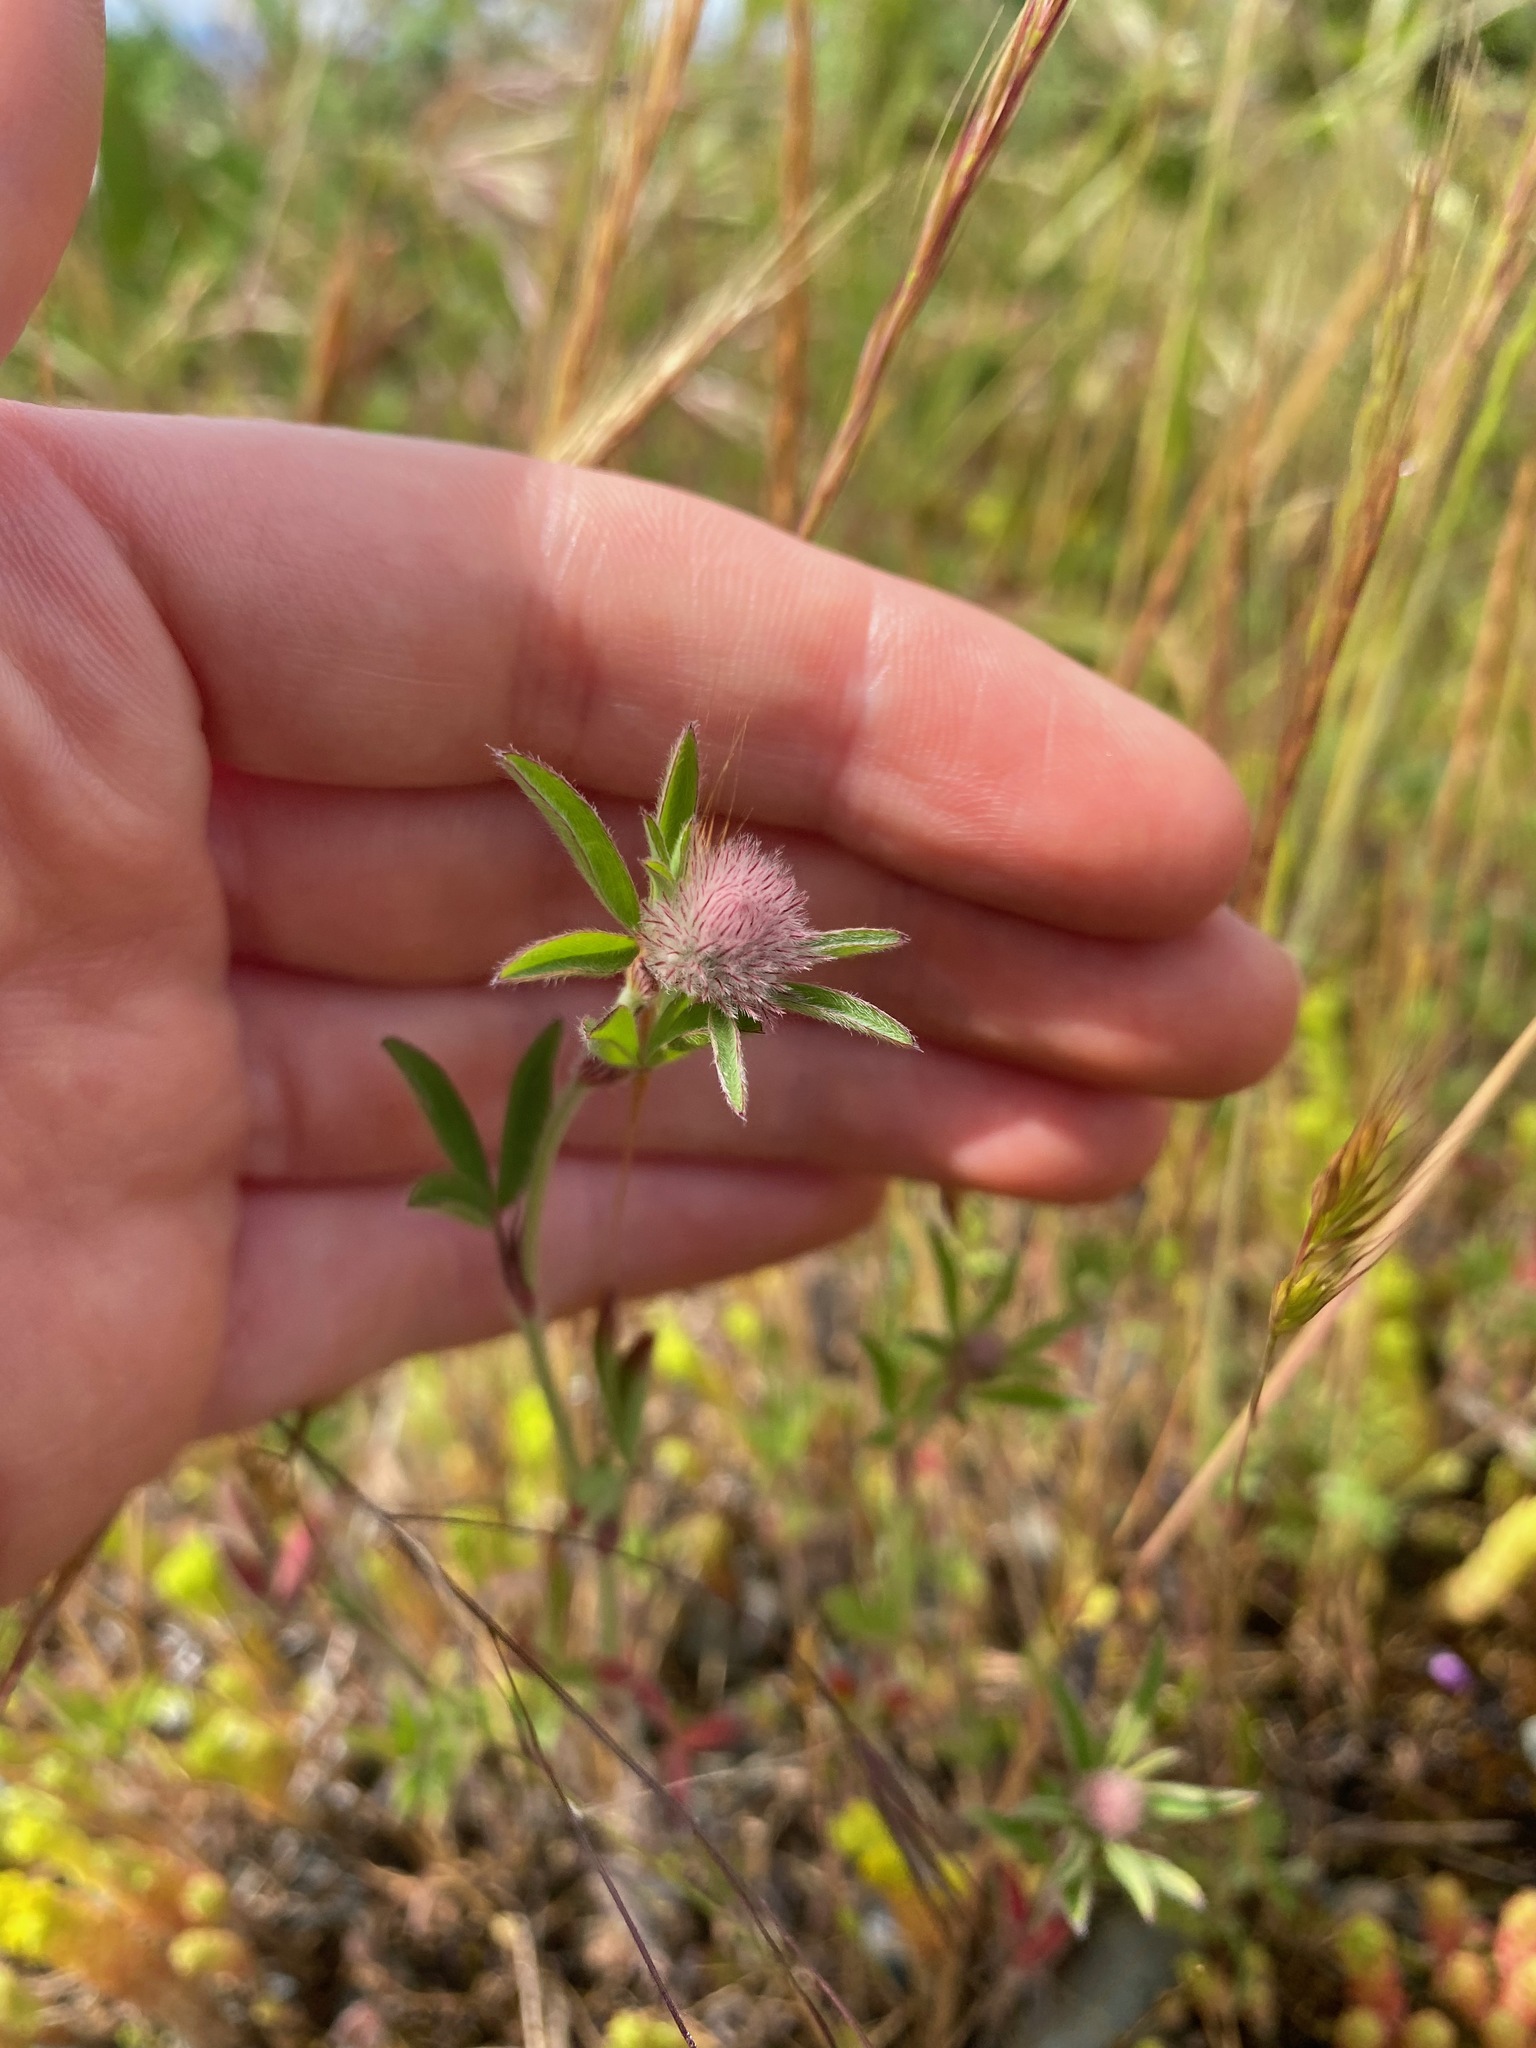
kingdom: Plantae
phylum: Tracheophyta
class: Magnoliopsida
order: Fabales
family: Fabaceae
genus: Trifolium
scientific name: Trifolium arvense
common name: Hare's-foot clover
